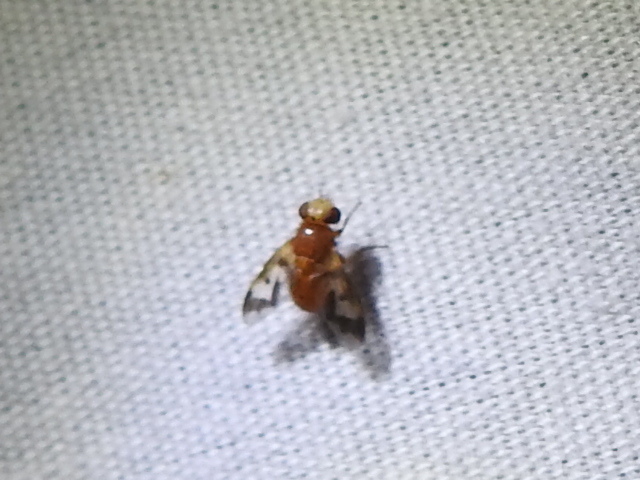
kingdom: Animalia
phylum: Arthropoda
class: Insecta
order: Diptera
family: Tachinidae
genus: Oestrophasia
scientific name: Oestrophasia calva
